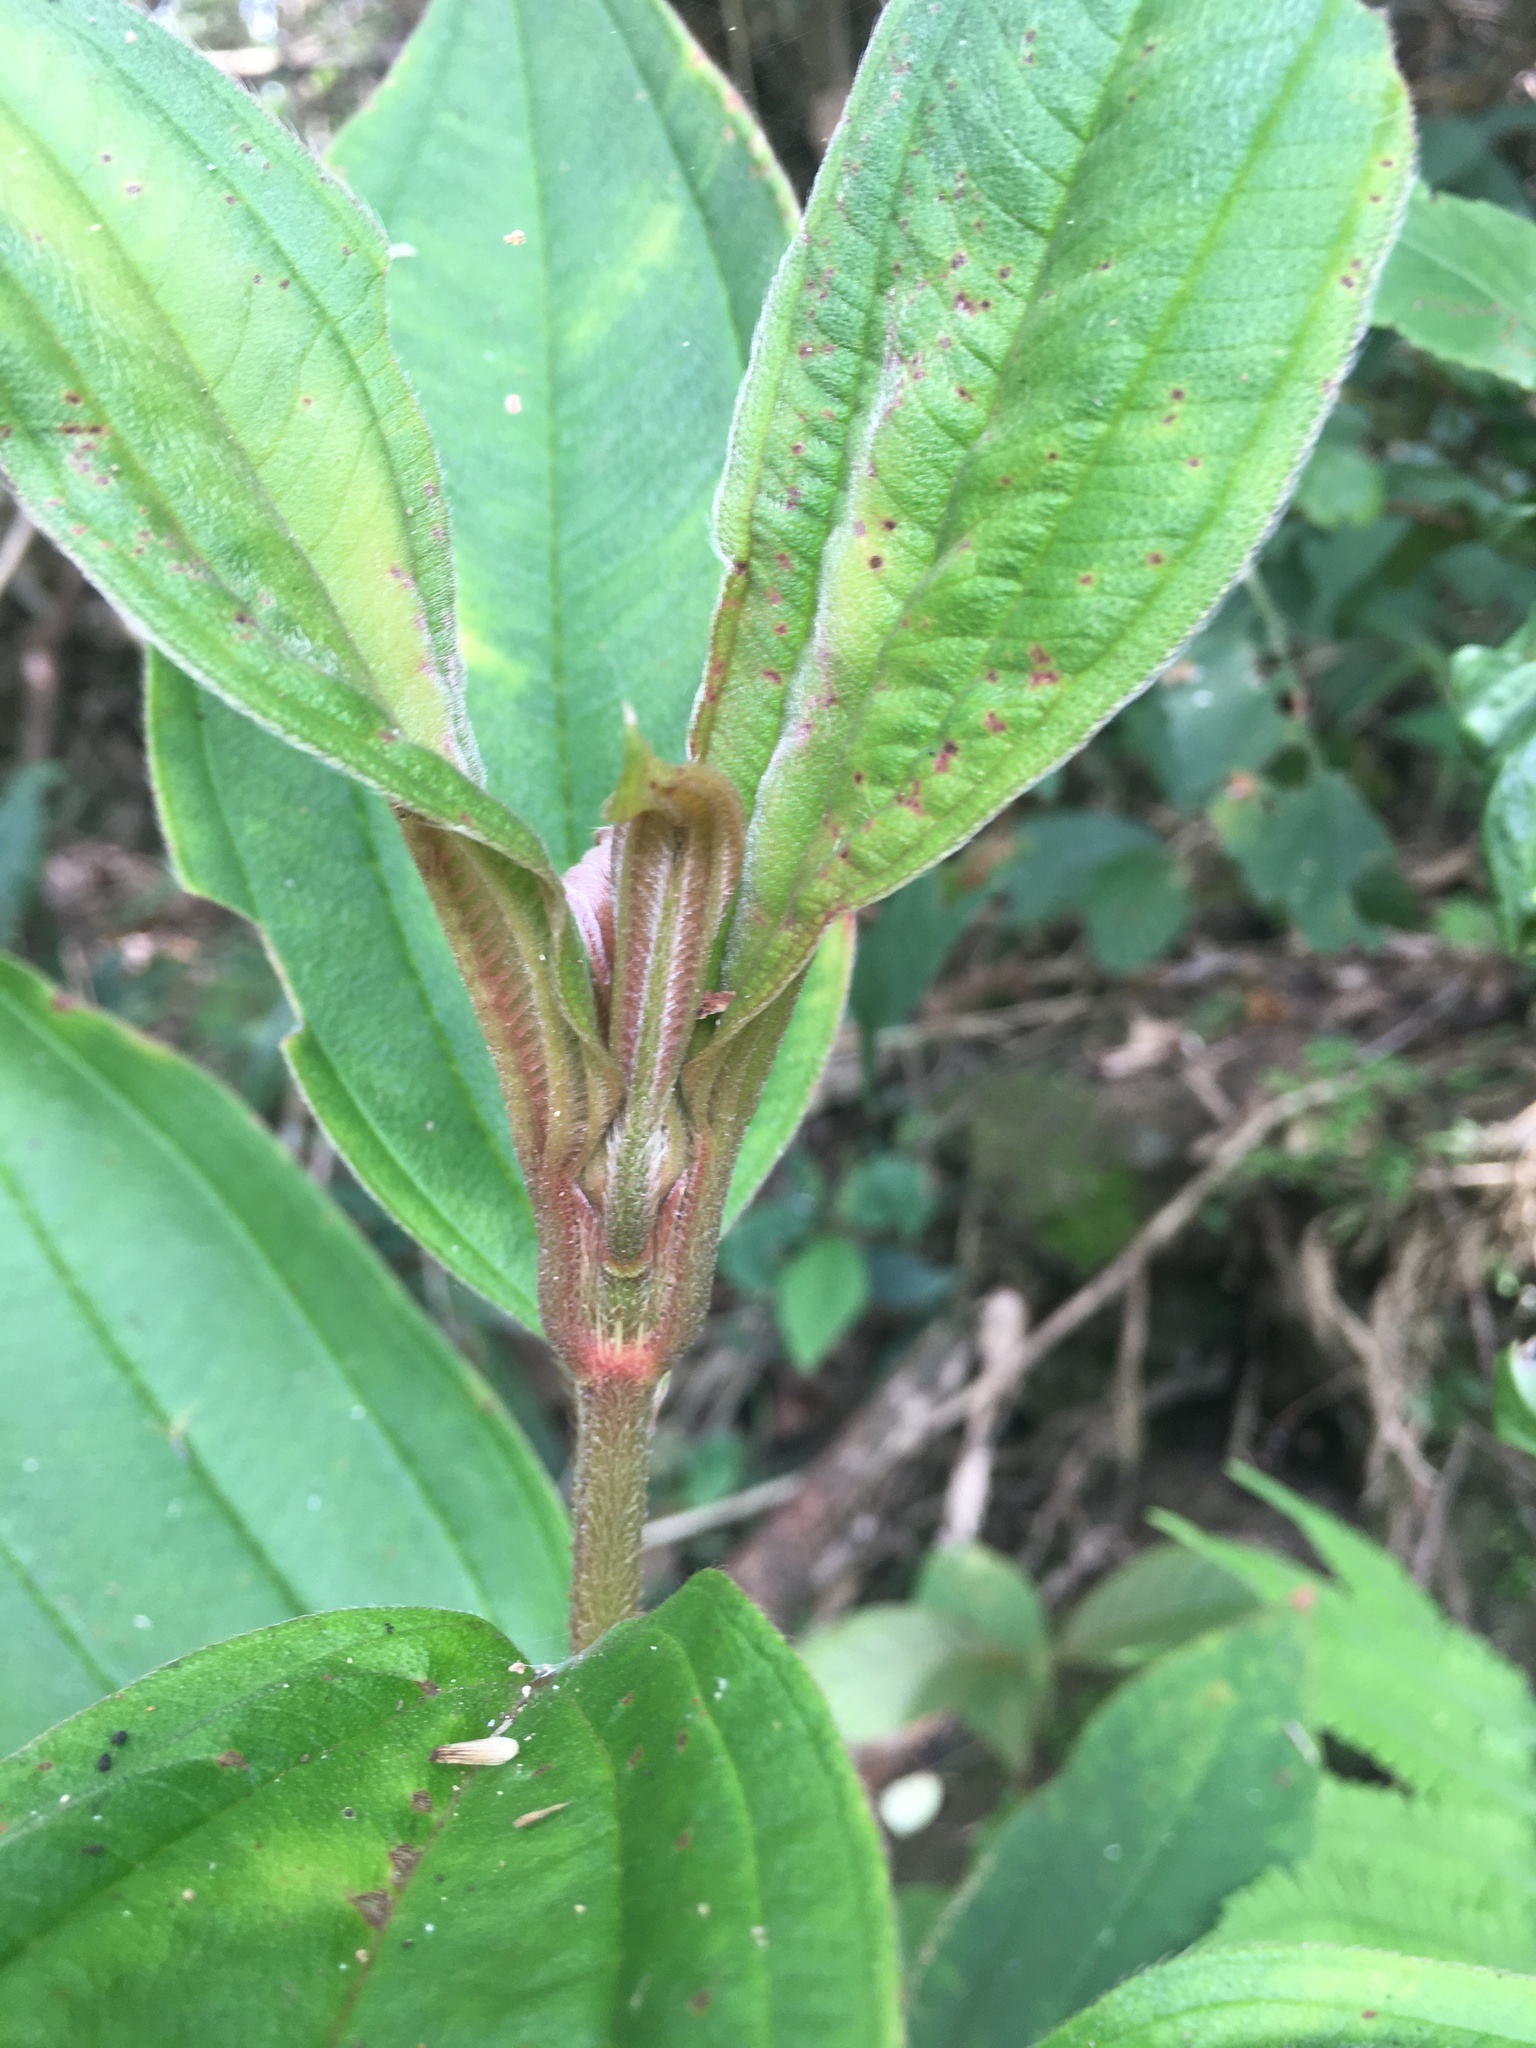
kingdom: Plantae
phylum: Tracheophyta
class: Magnoliopsida
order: Myrtales
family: Melastomataceae
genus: Melastoma
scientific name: Melastoma malabathricum
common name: Indian-rhododendron
